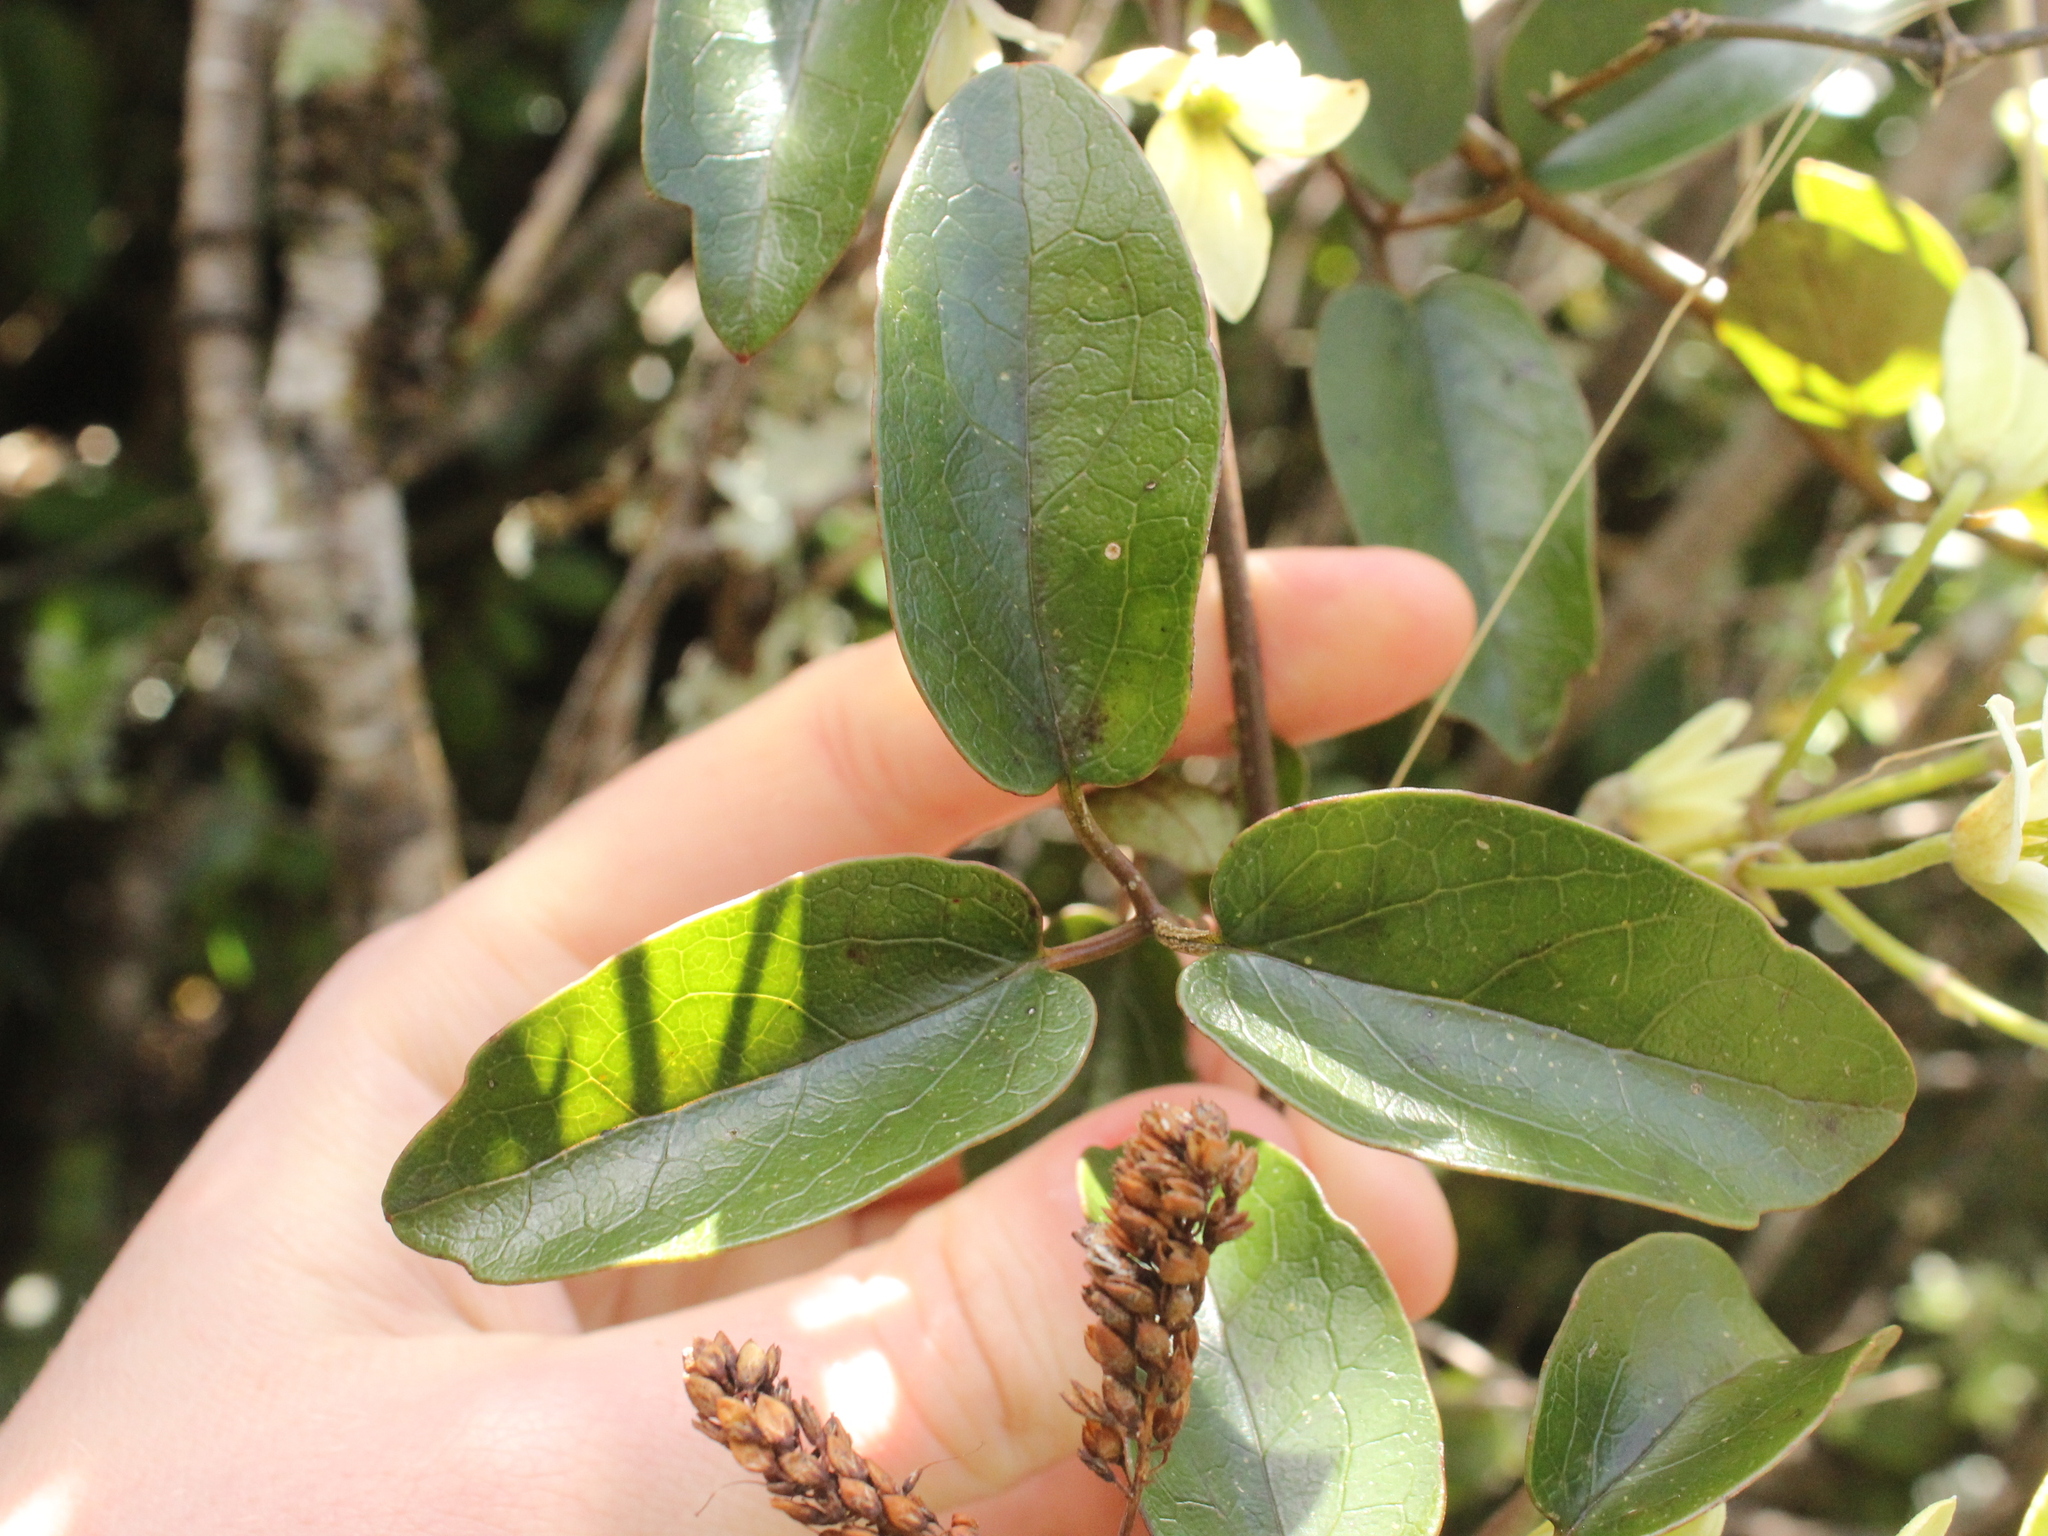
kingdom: Plantae
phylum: Tracheophyta
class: Magnoliopsida
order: Ranunculales
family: Ranunculaceae
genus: Clematis
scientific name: Clematis paniculata
